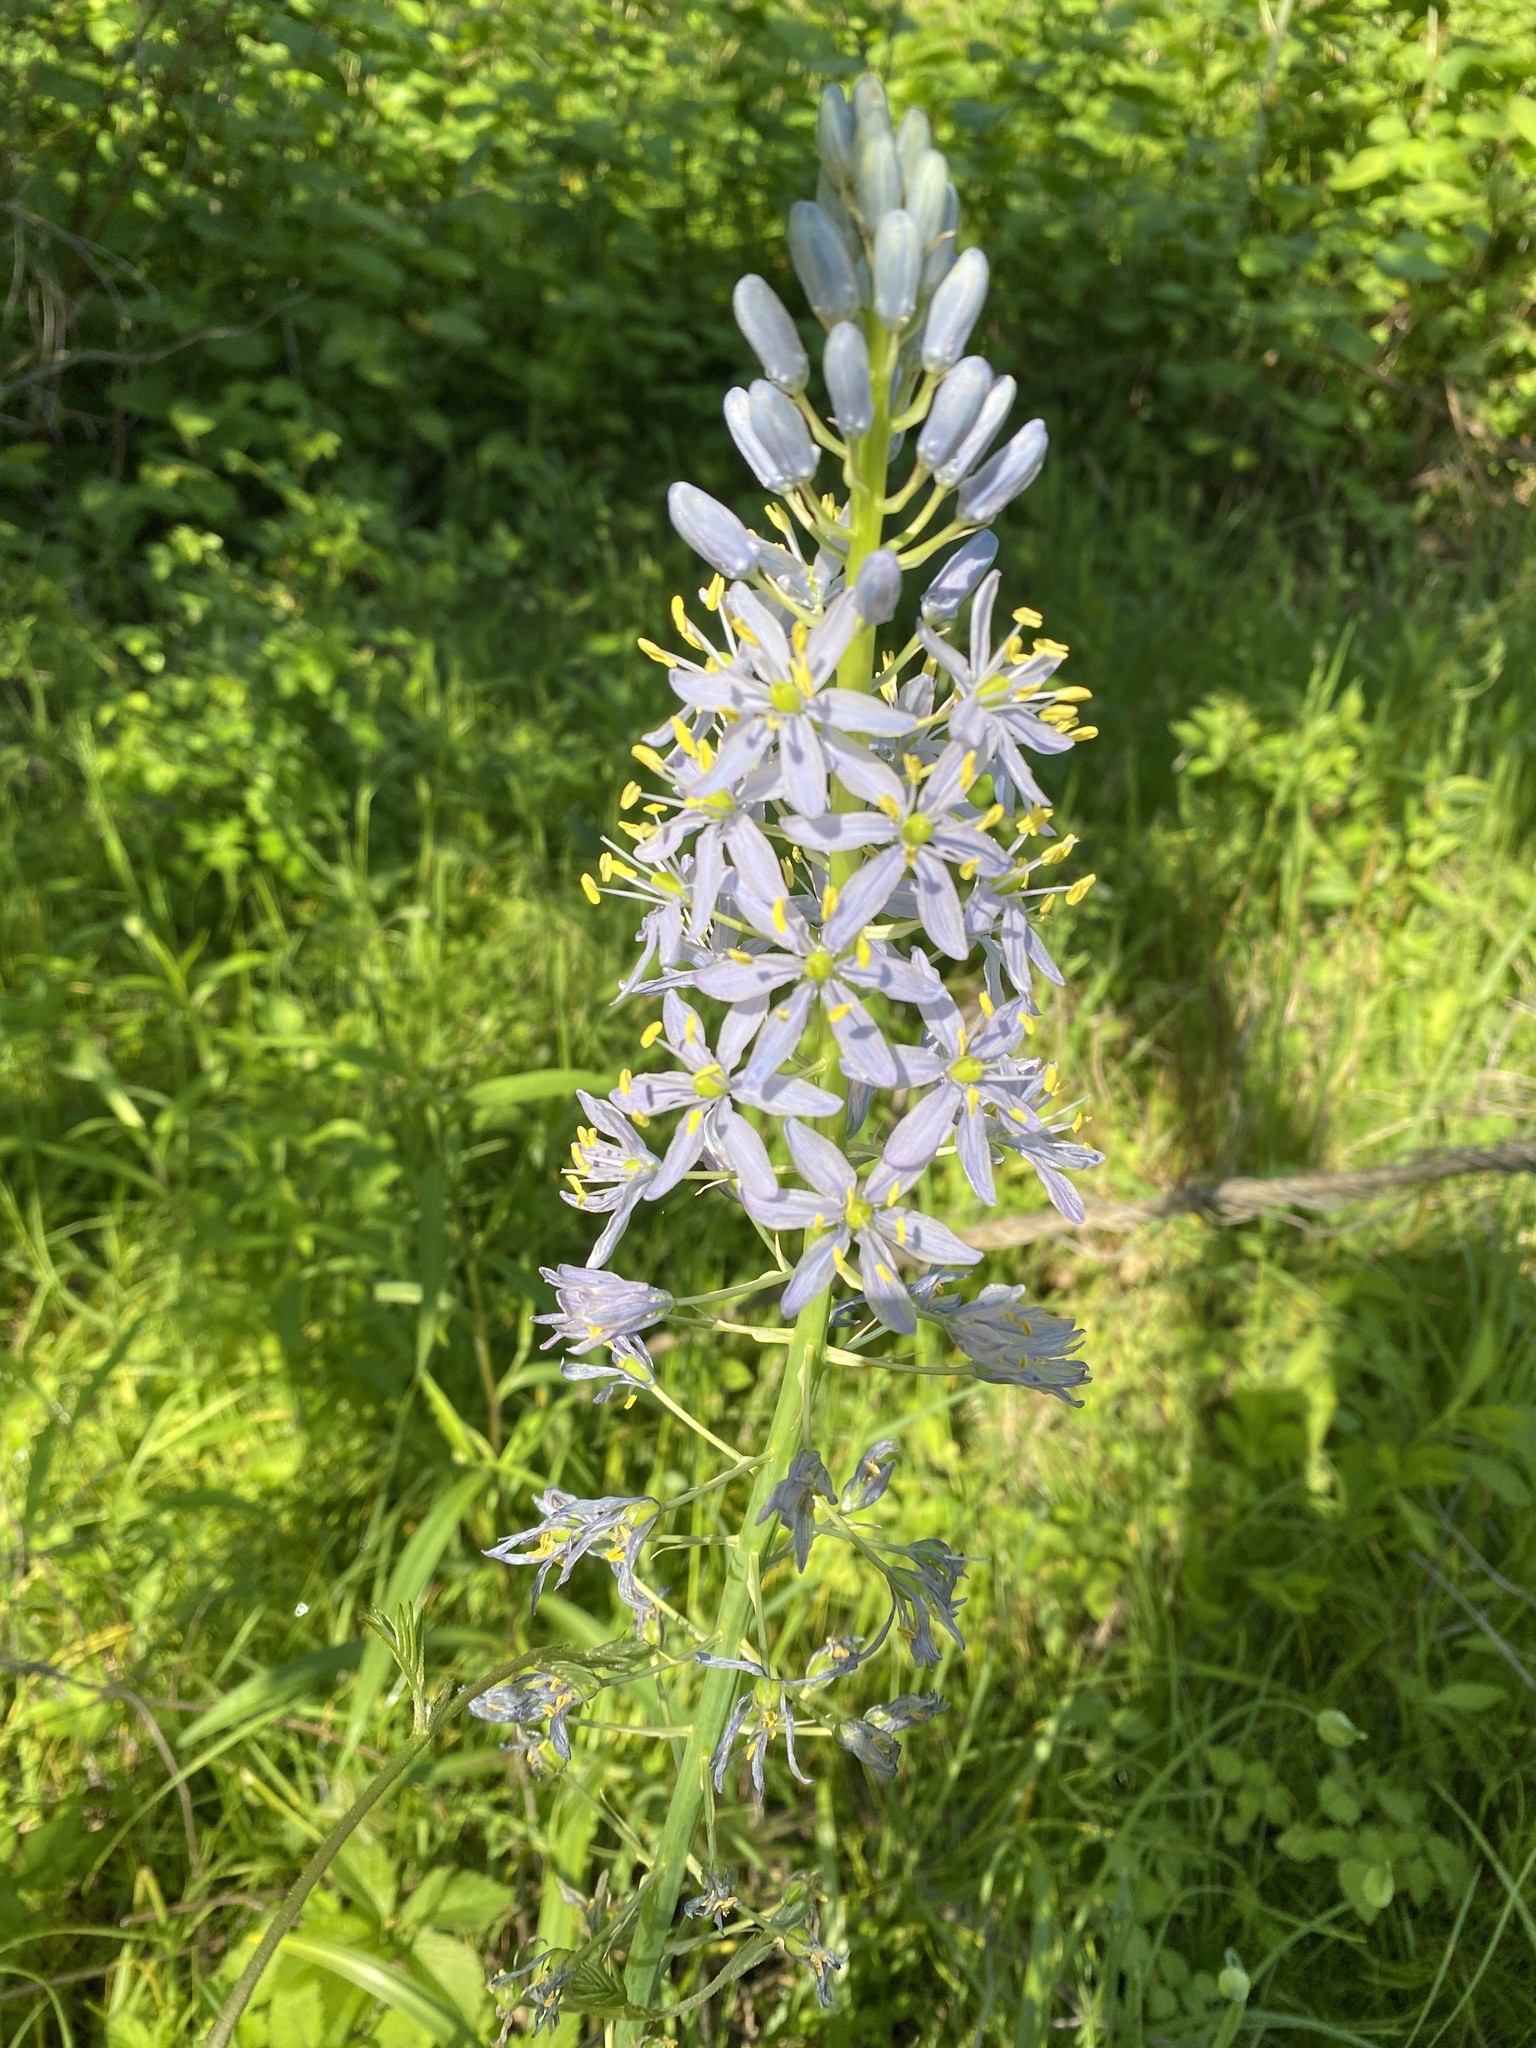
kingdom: Plantae
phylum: Tracheophyta
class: Liliopsida
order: Asparagales
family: Asparagaceae
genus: Camassia
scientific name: Camassia scilloides
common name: Wild hyacinth
